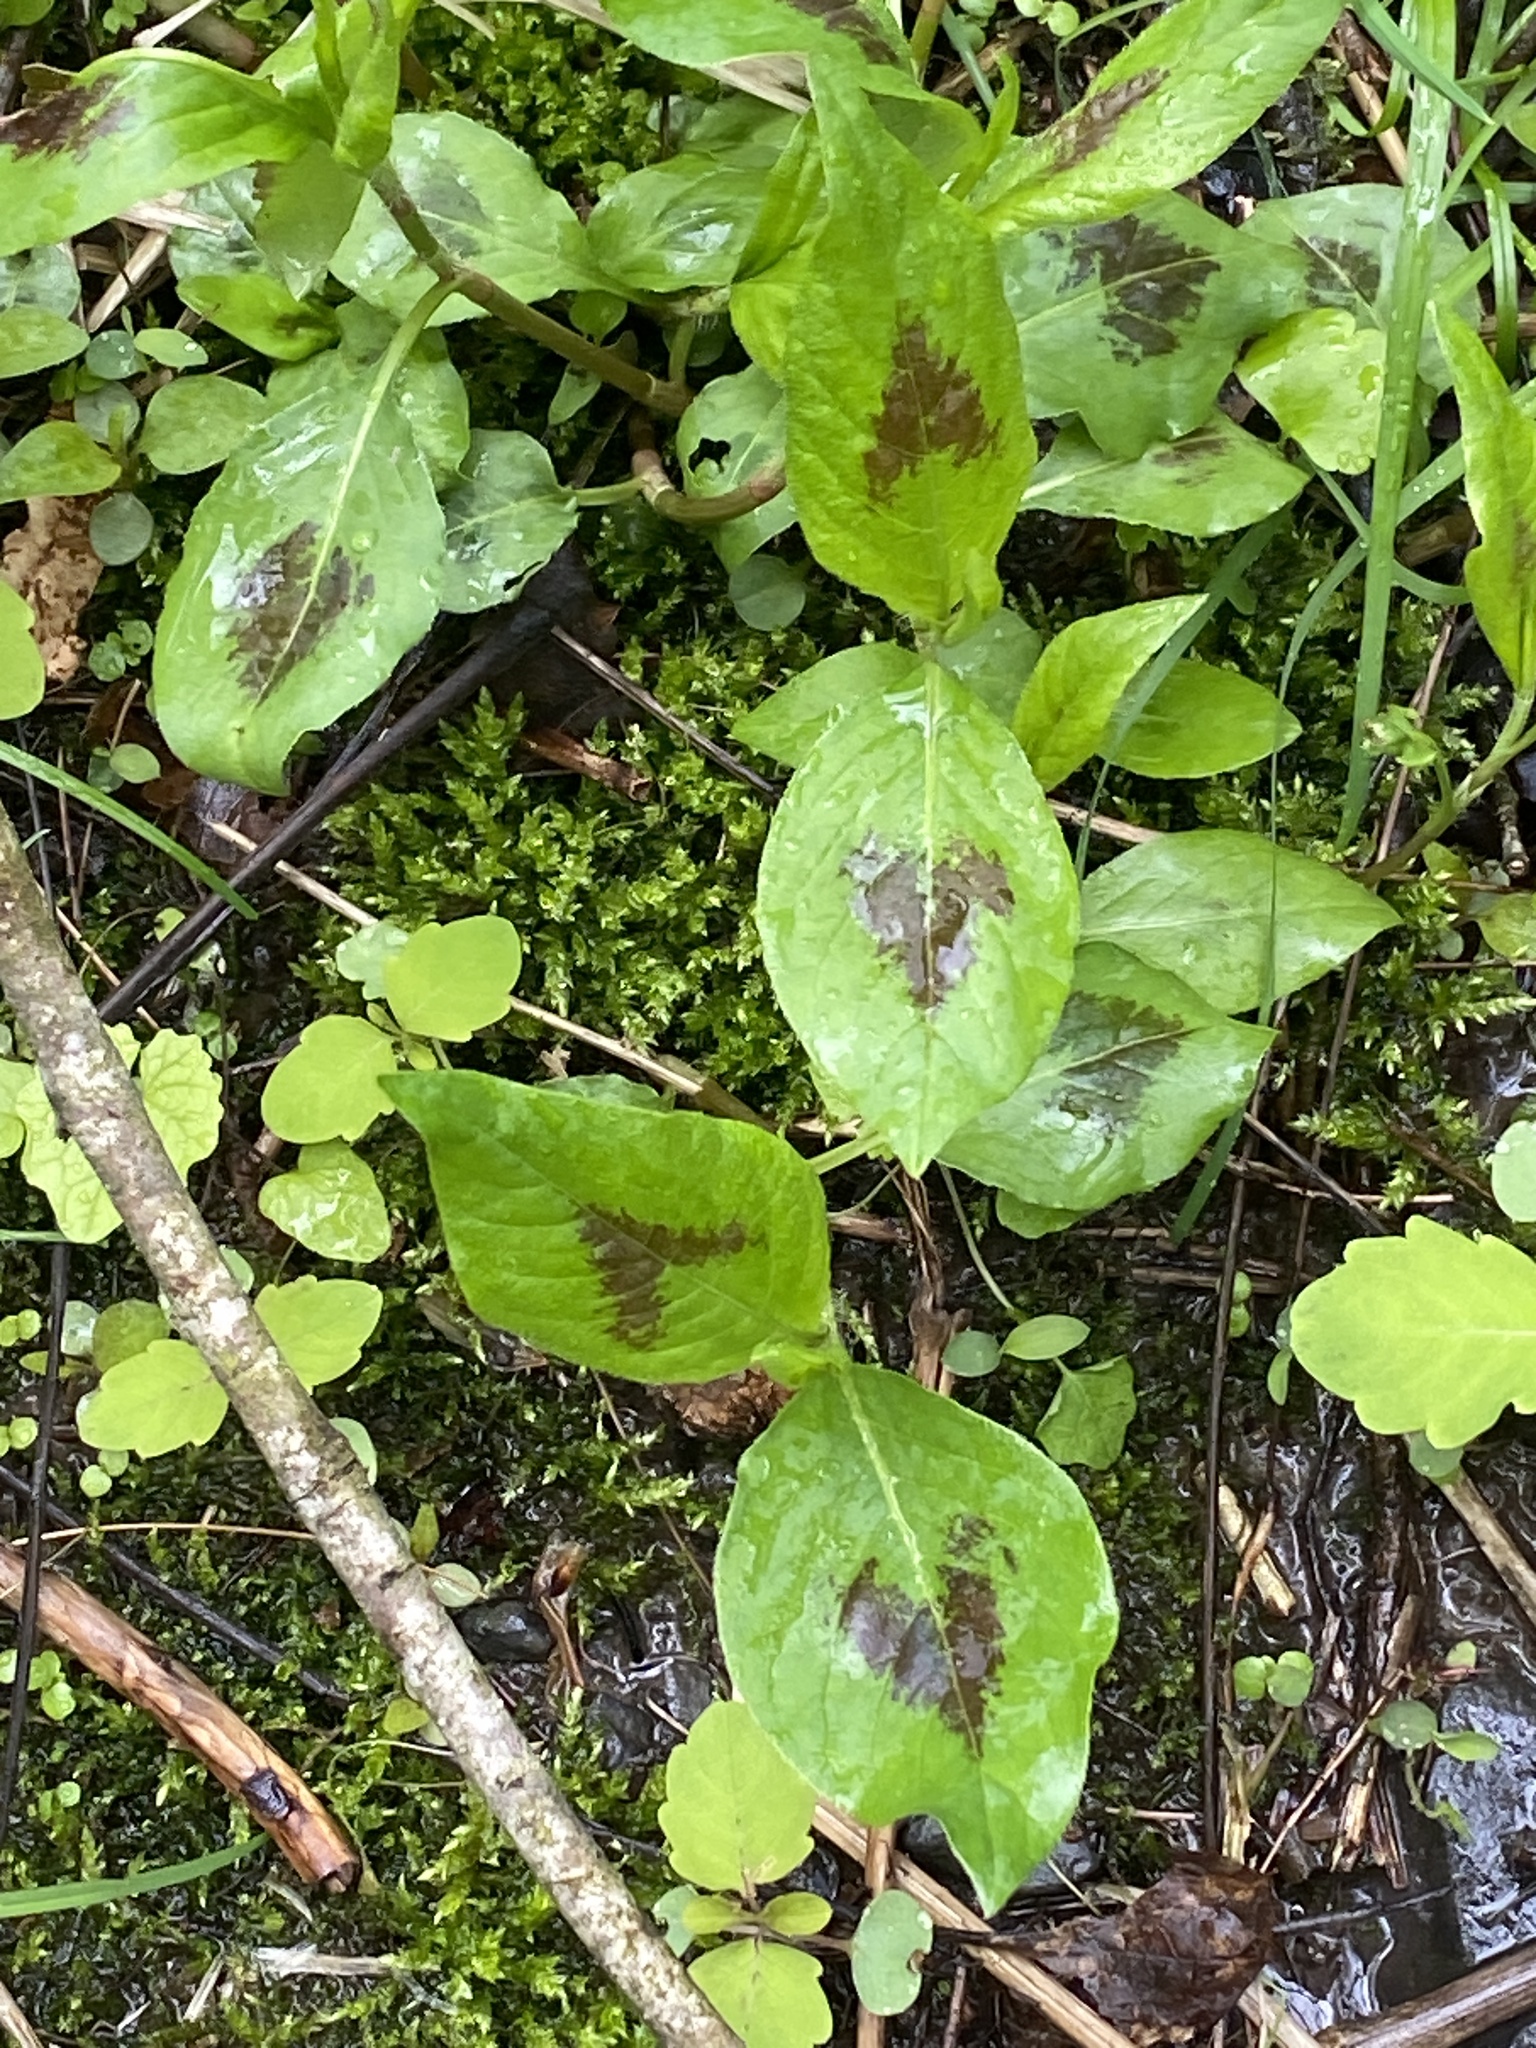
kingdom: Plantae
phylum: Tracheophyta
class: Magnoliopsida
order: Caryophyllales
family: Polygonaceae
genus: Persicaria
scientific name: Persicaria virginiana
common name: Jumpseed
